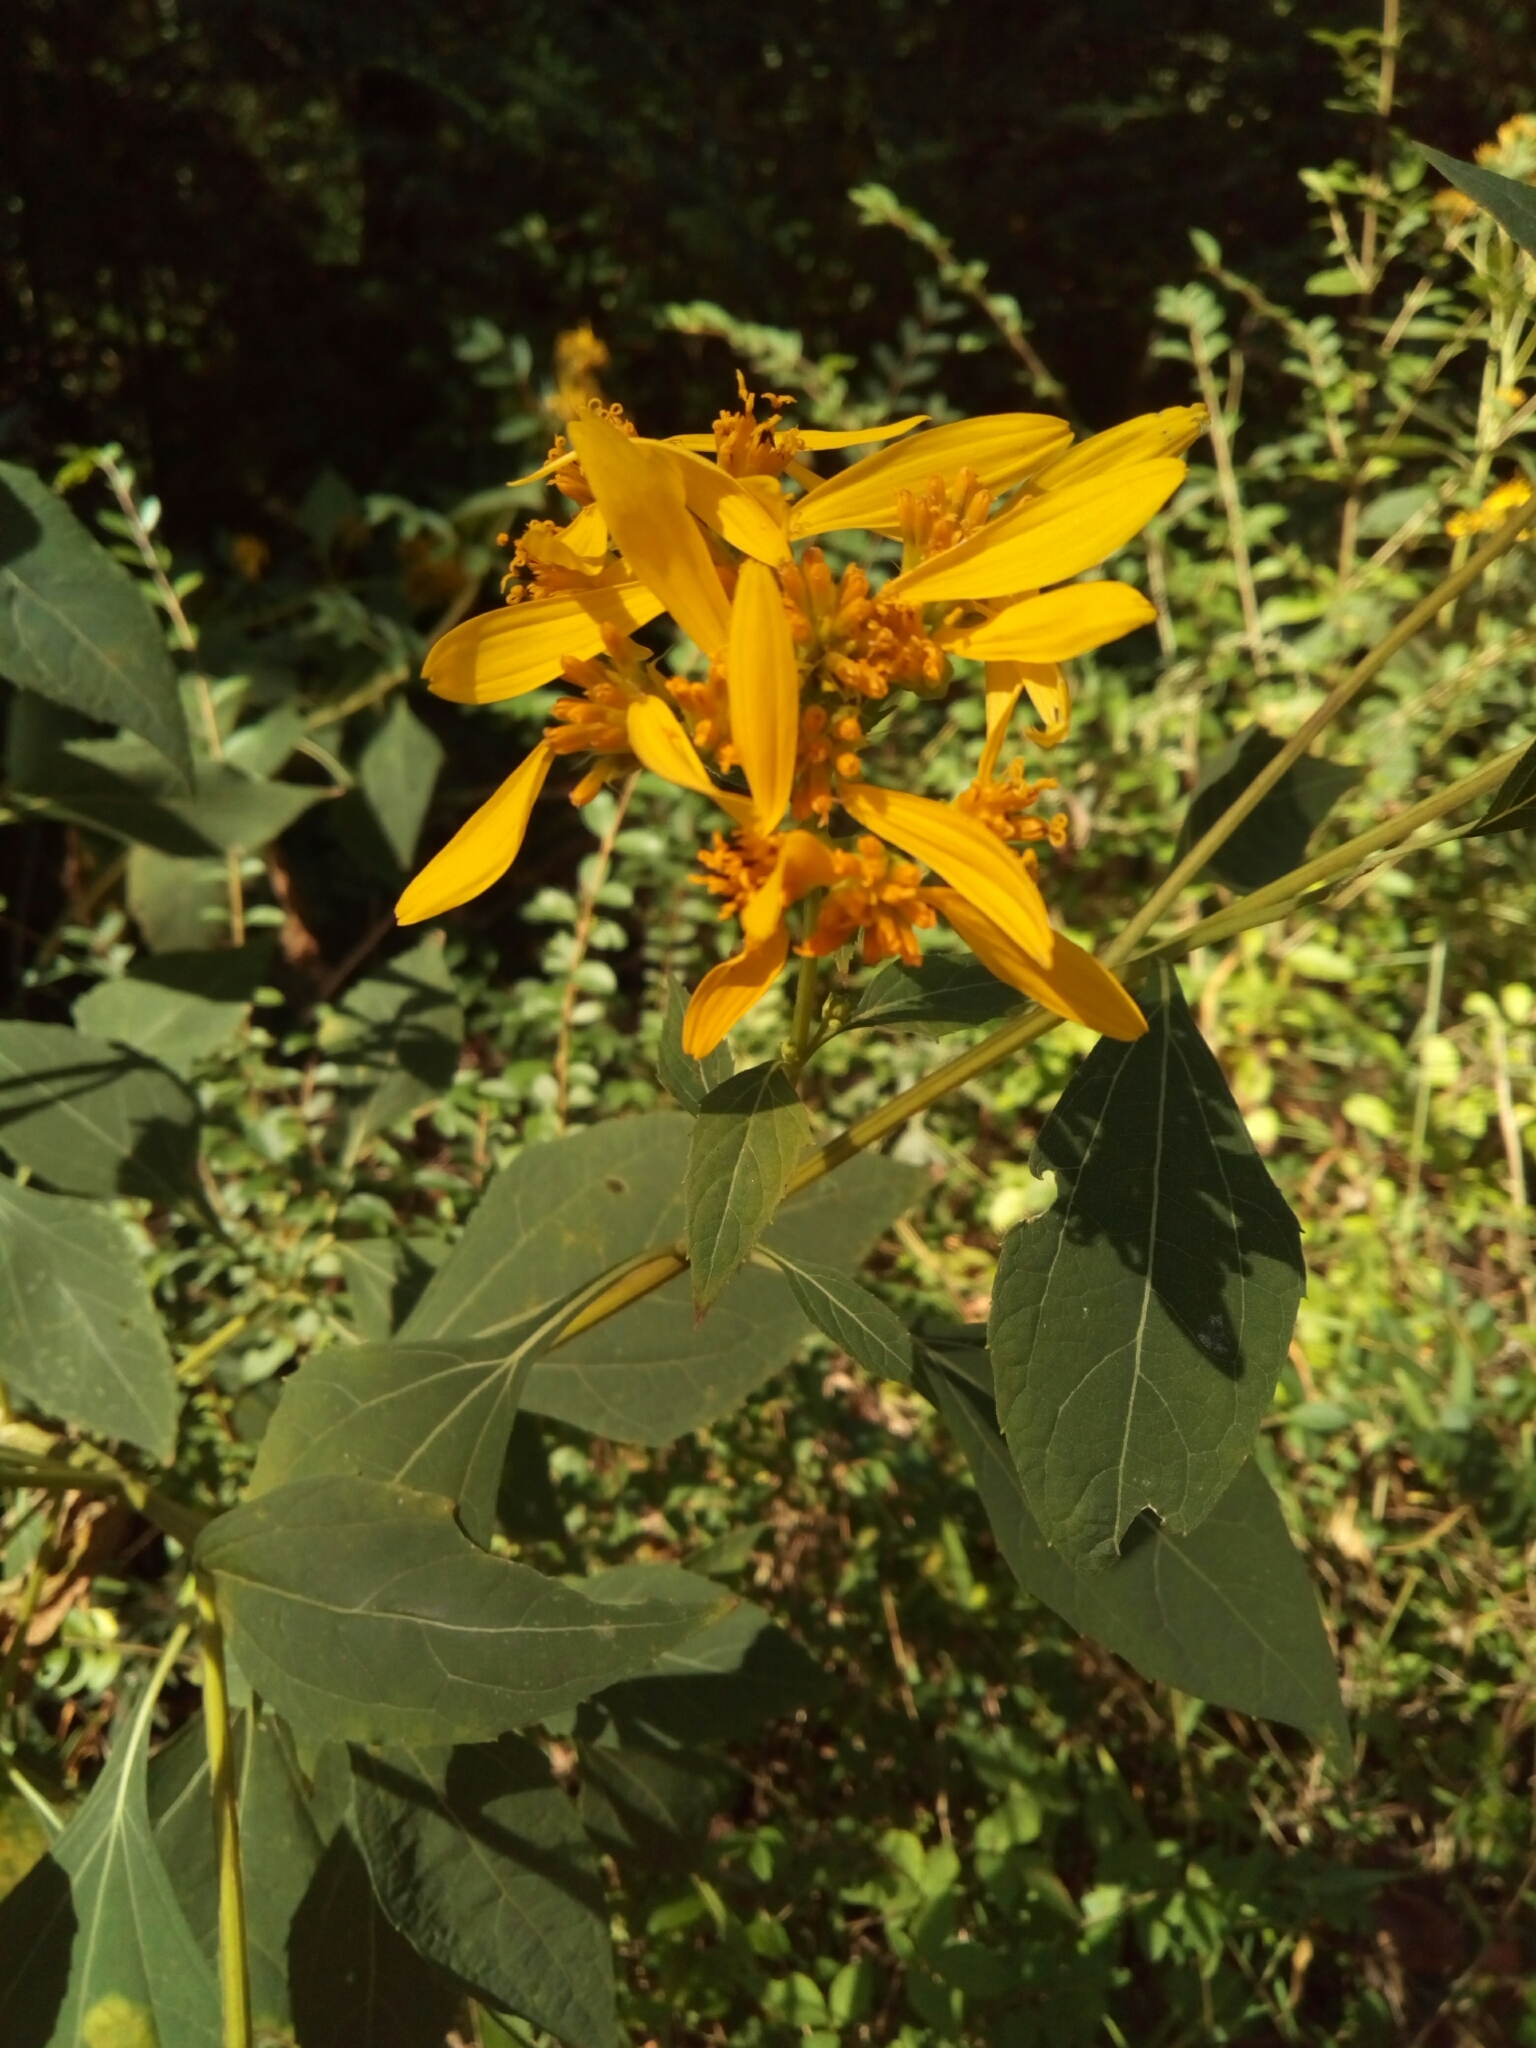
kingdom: Plantae
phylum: Tracheophyta
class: Magnoliopsida
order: Asterales
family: Asteraceae
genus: Verbesina
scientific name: Verbesina occidentalis
